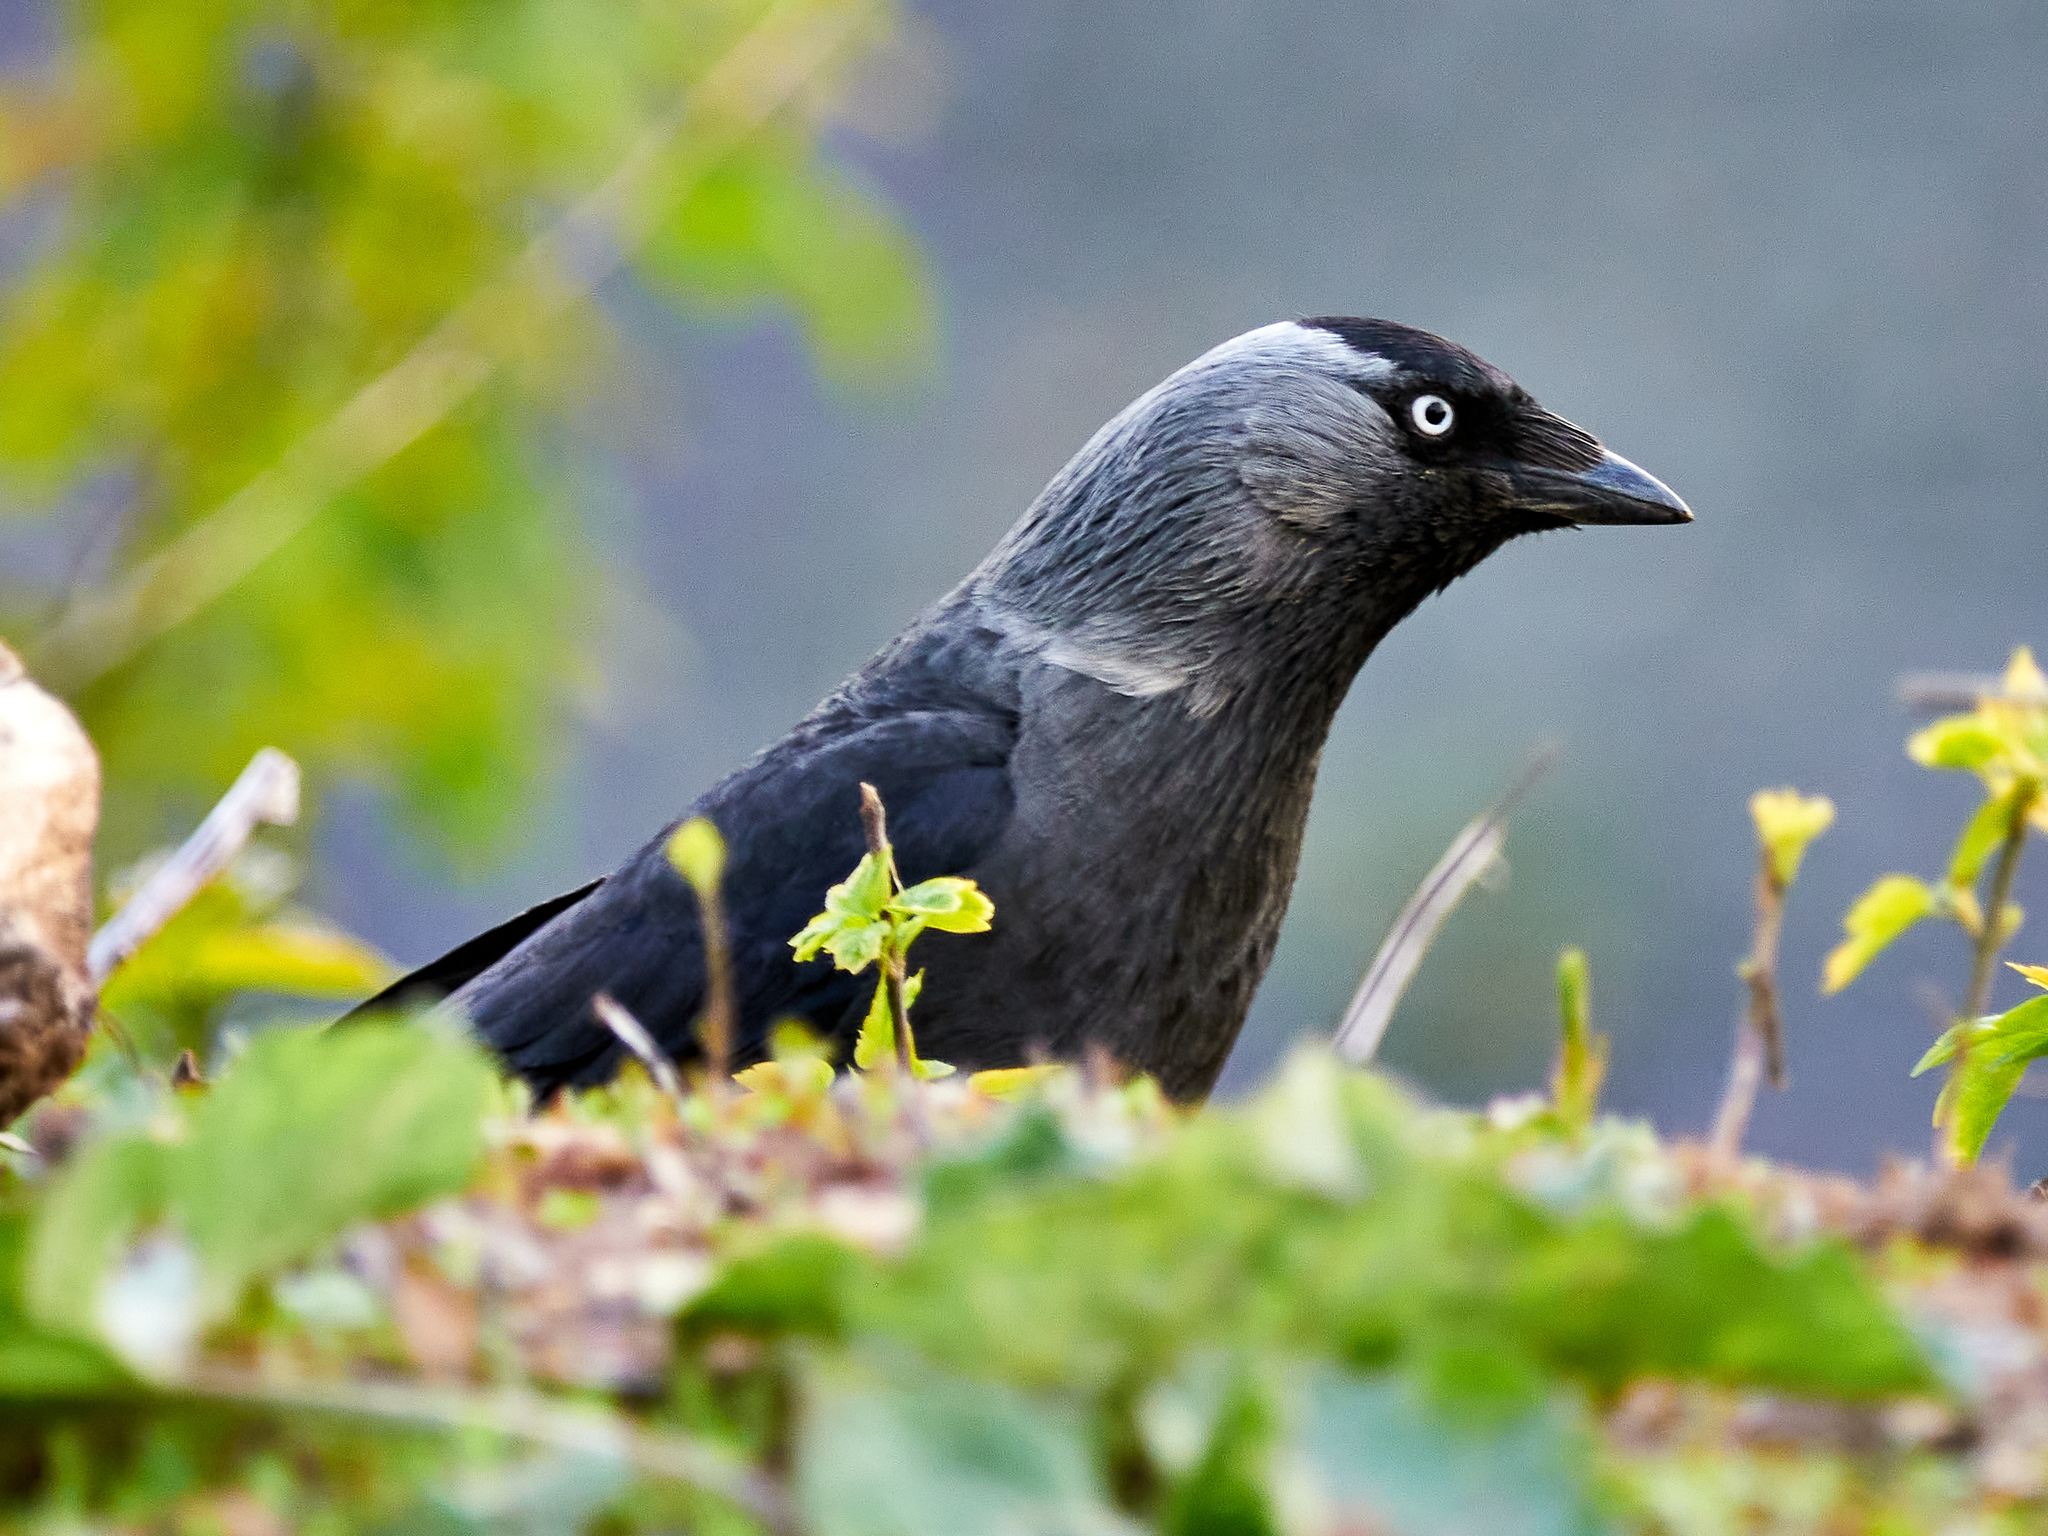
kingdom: Animalia
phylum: Chordata
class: Aves
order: Passeriformes
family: Corvidae
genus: Coloeus
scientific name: Coloeus monedula
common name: Western jackdaw
